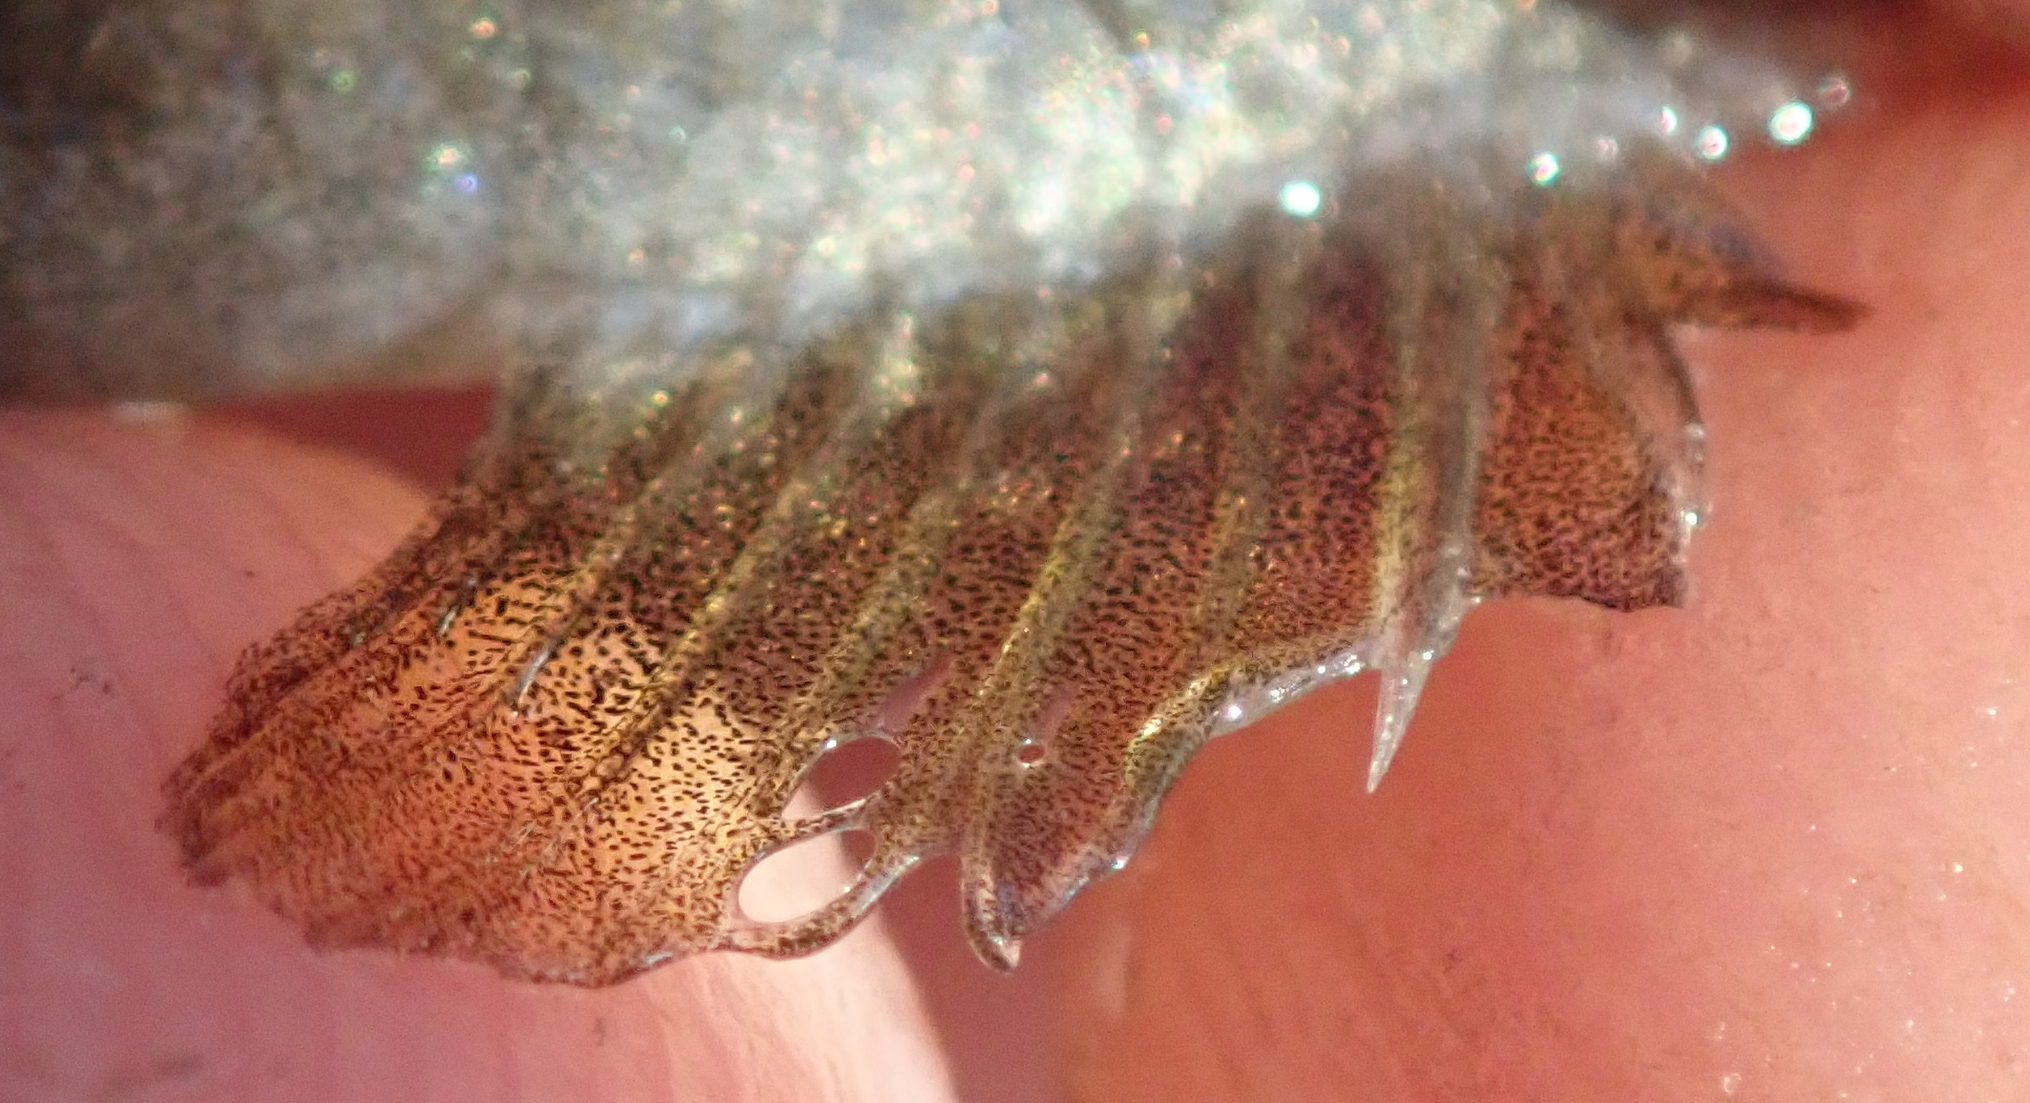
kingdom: Animalia
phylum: Chordata
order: Perciformes
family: Cichlidae
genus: Tilapia
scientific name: Tilapia sparrmanii
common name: Banded tilapia
